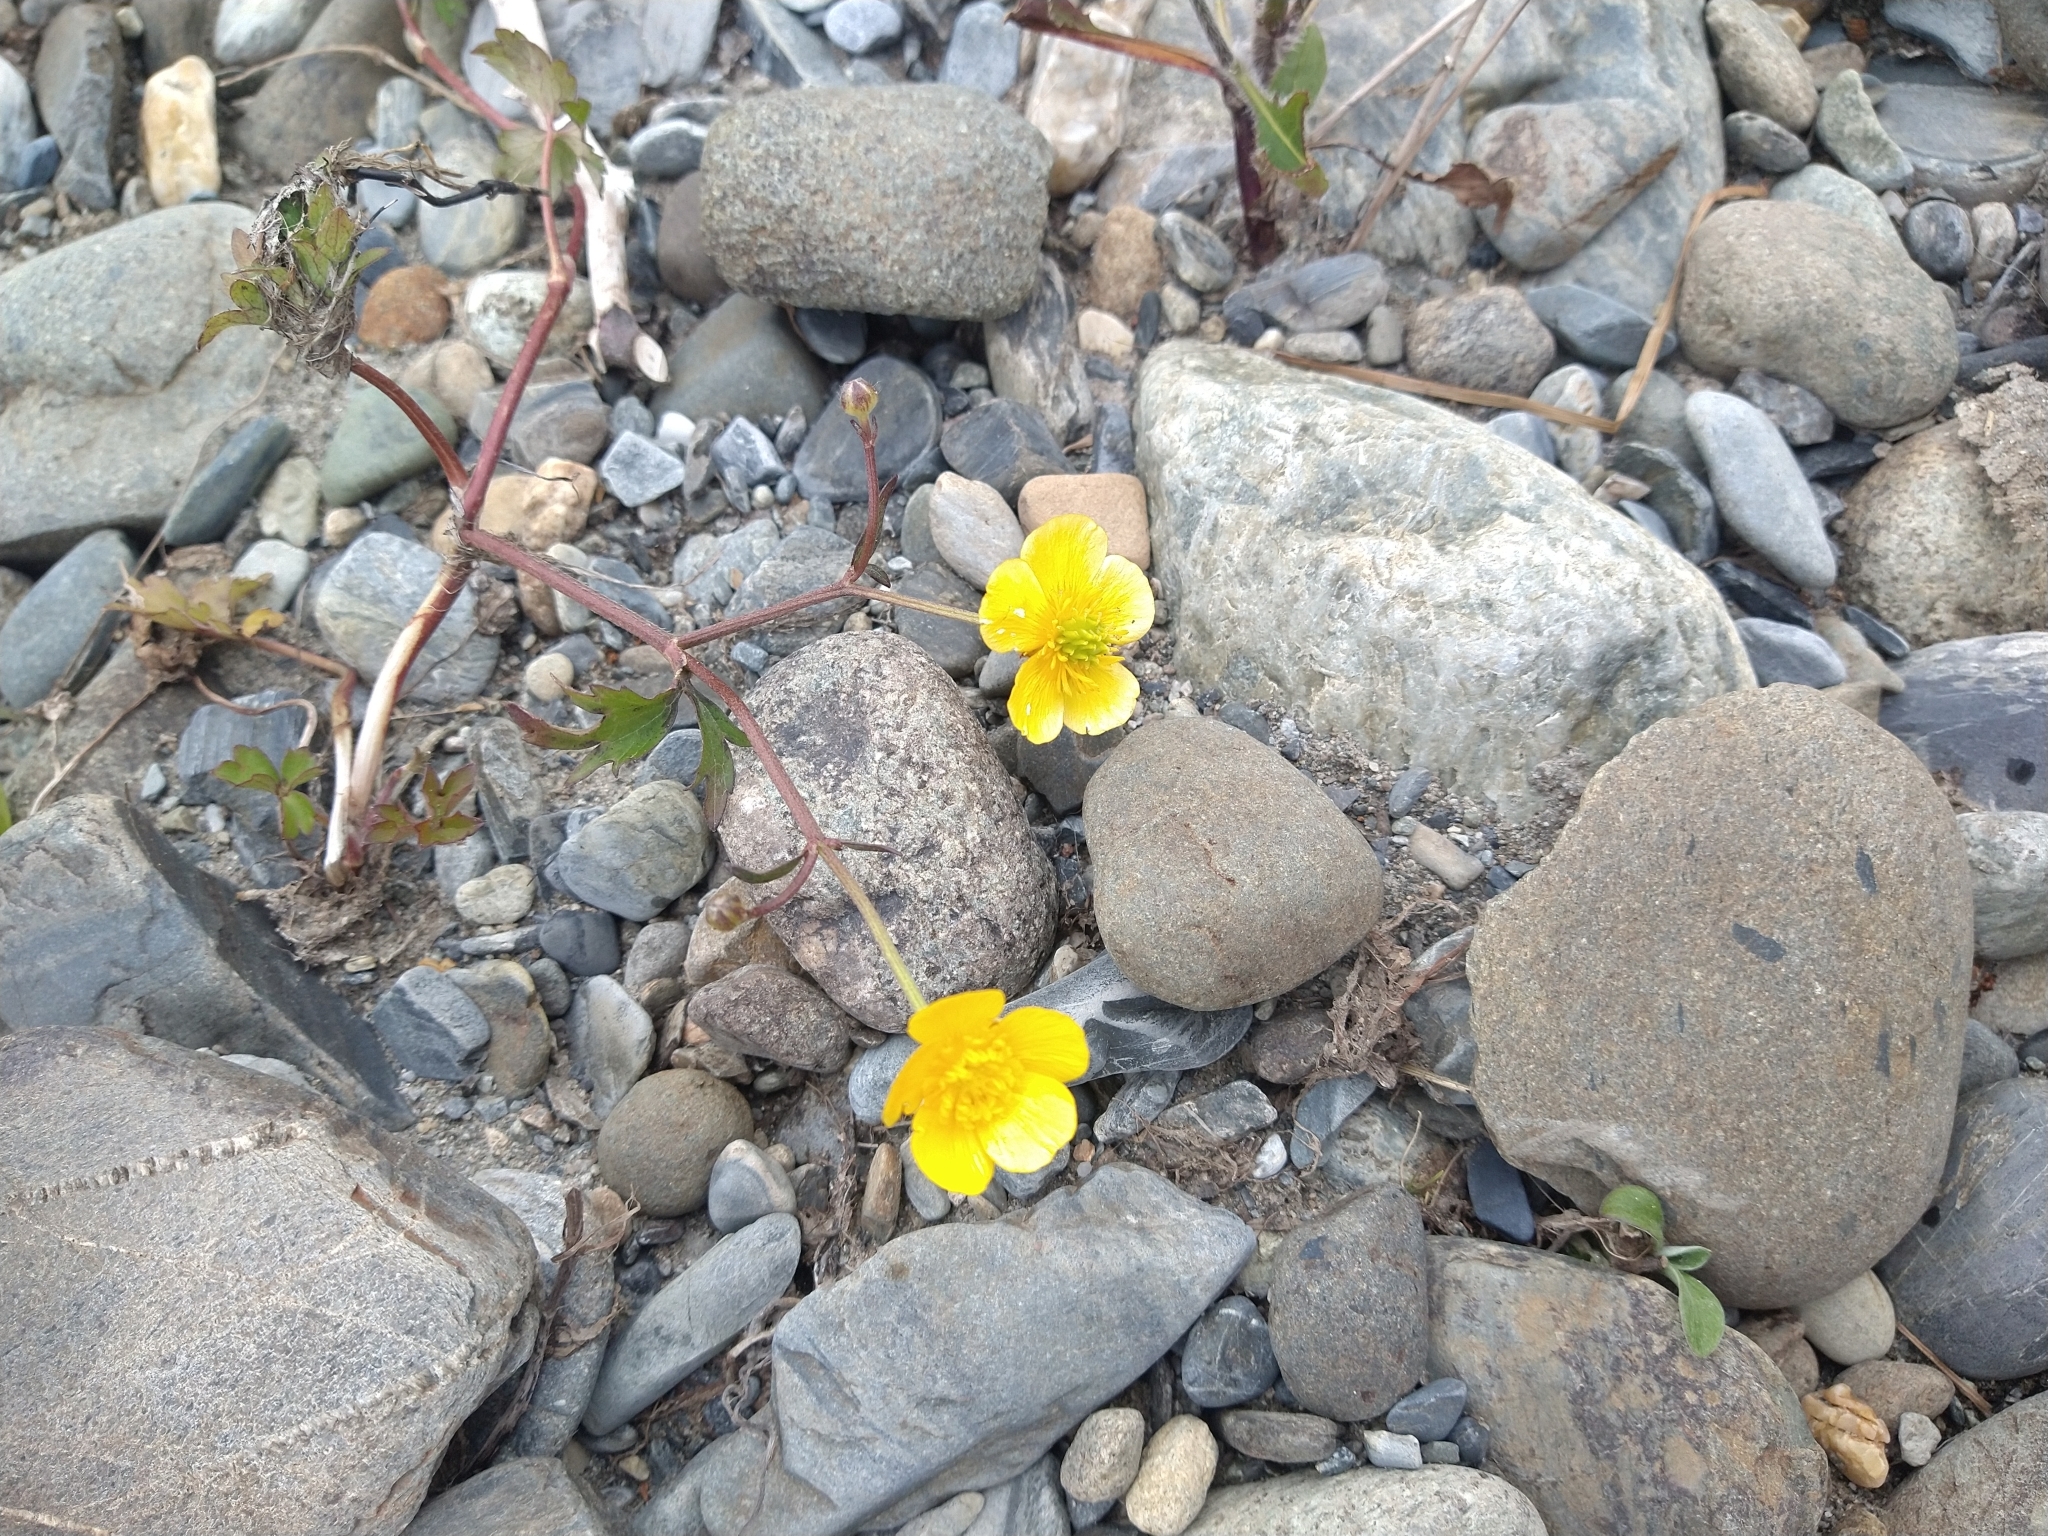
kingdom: Plantae
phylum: Tracheophyta
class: Magnoliopsida
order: Ranunculales
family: Ranunculaceae
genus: Ranunculus
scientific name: Ranunculus repens
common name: Creeping buttercup
